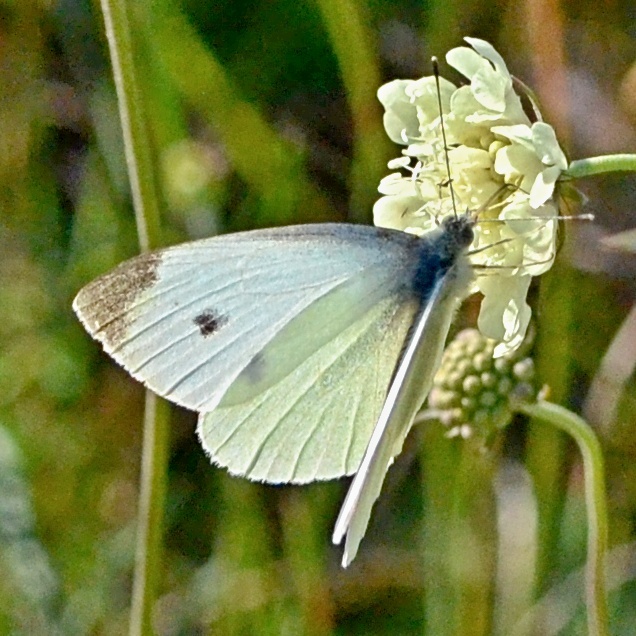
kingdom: Animalia
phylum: Arthropoda
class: Insecta
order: Lepidoptera
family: Pieridae
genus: Pieris
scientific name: Pieris rapae
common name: Small white
